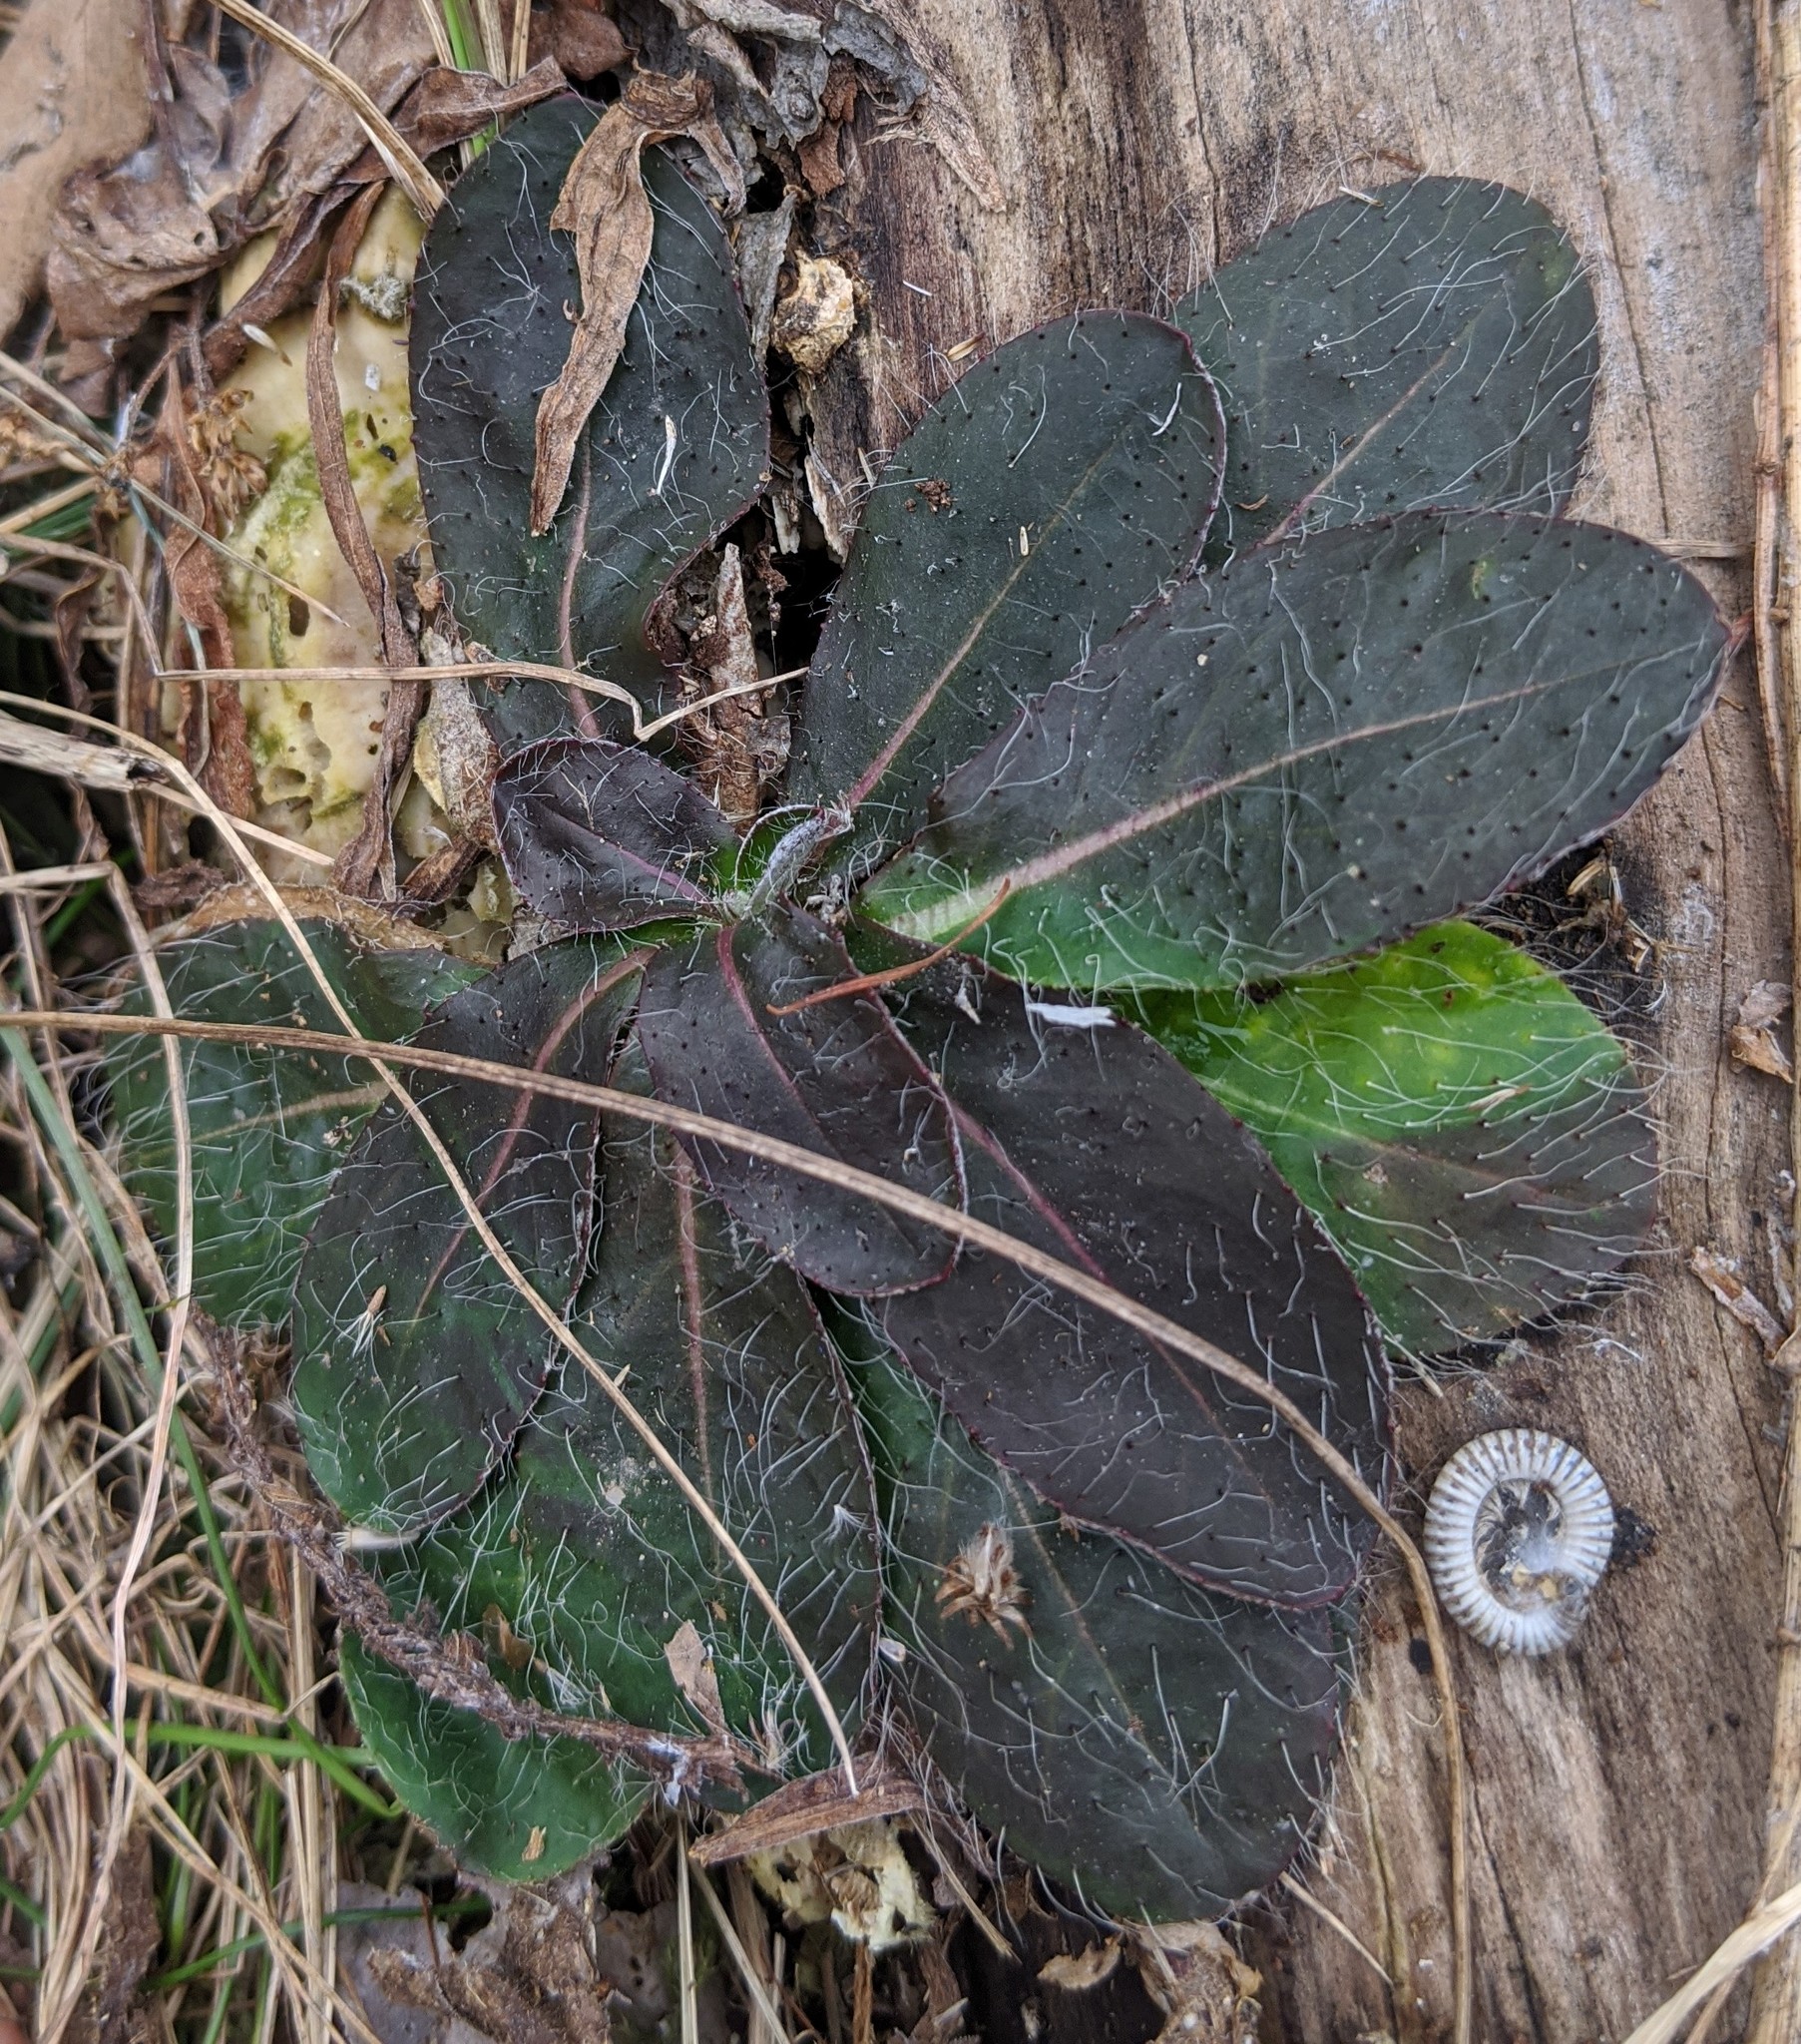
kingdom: Plantae
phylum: Tracheophyta
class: Magnoliopsida
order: Asterales
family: Asteraceae
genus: Pilosella
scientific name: Pilosella officinarum
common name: Mouse-ear hawkweed
